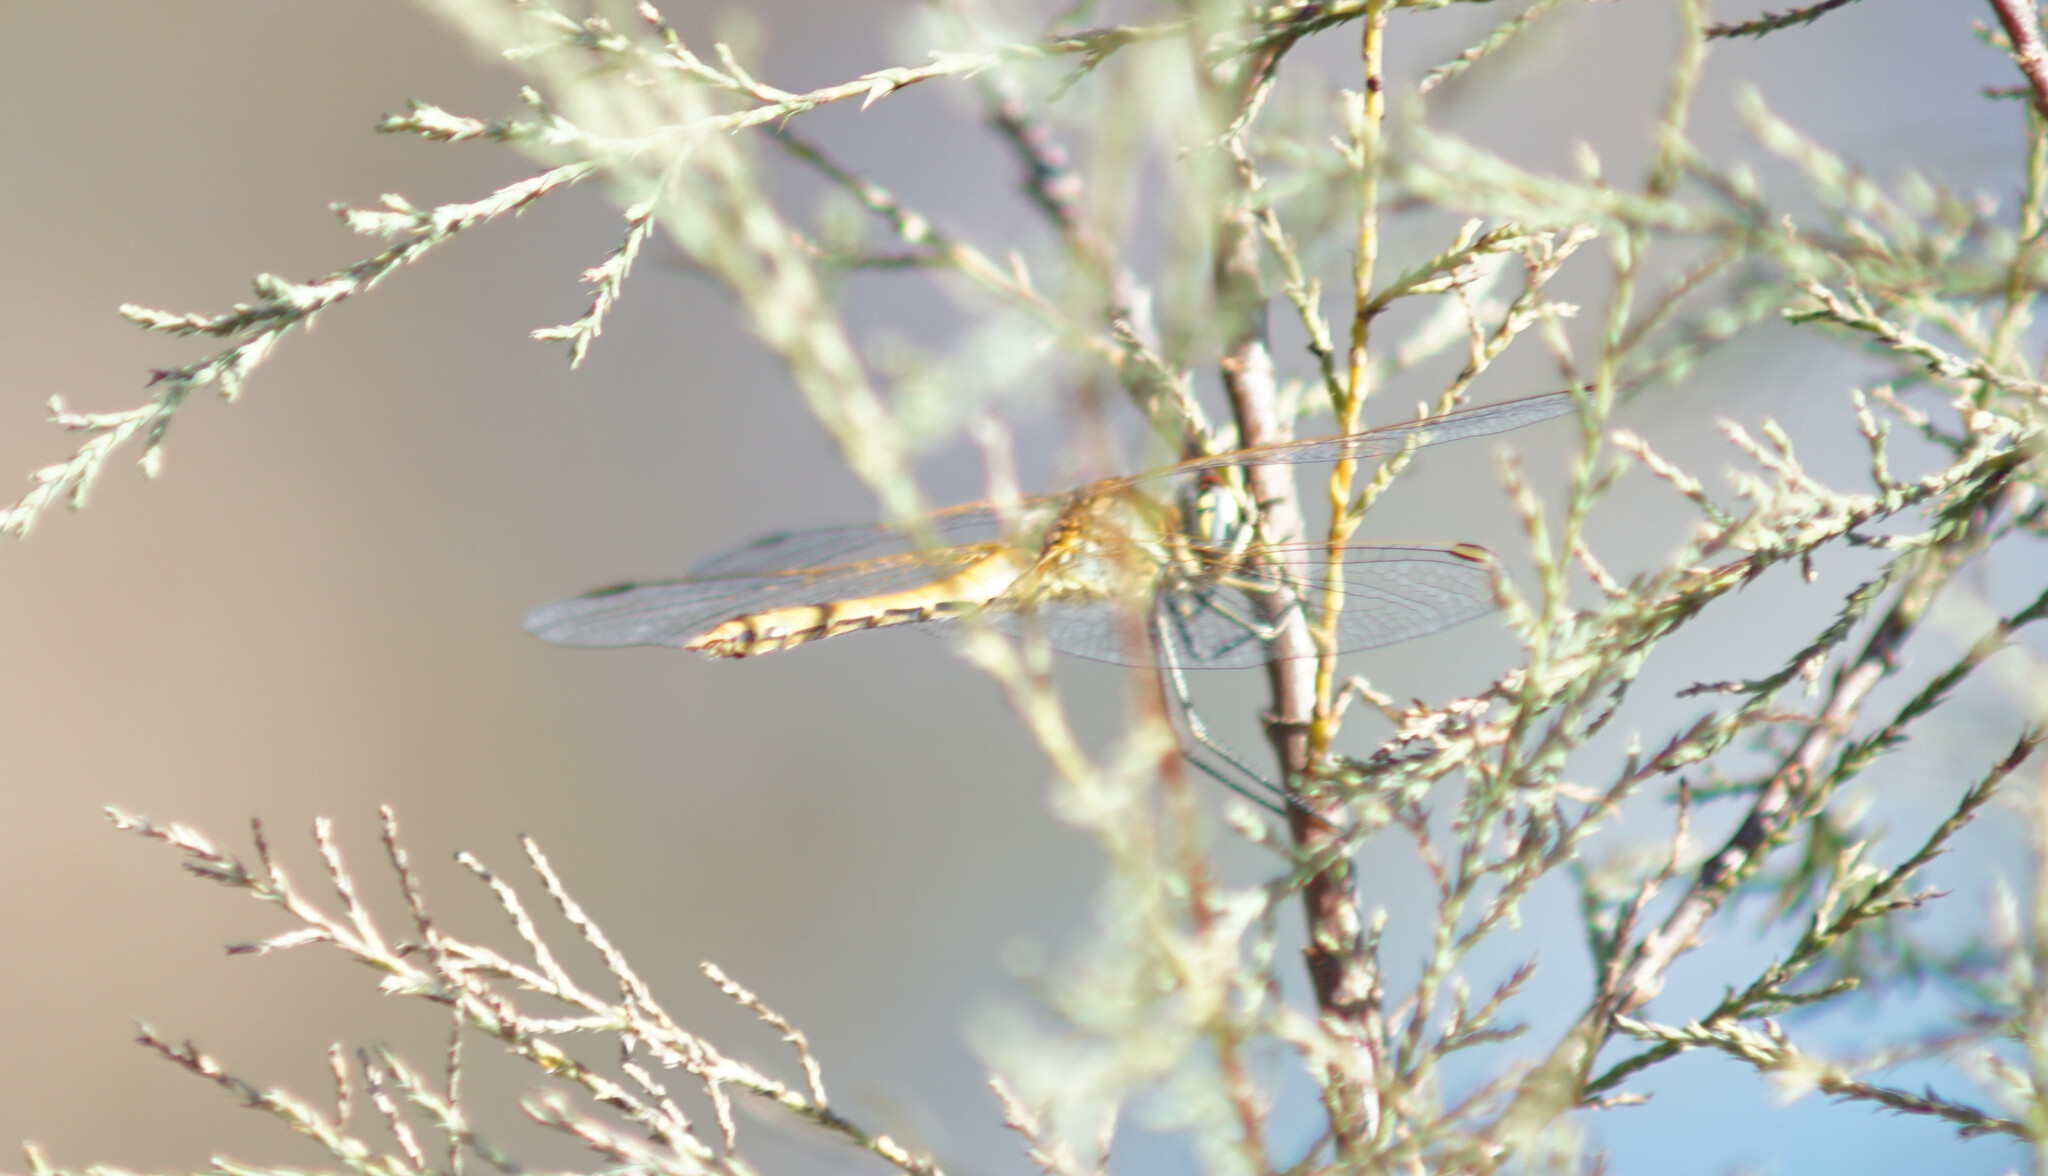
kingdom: Animalia
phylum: Arthropoda
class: Insecta
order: Odonata
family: Libellulidae
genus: Sympetrum
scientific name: Sympetrum fonscolombii
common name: Red-veined darter
